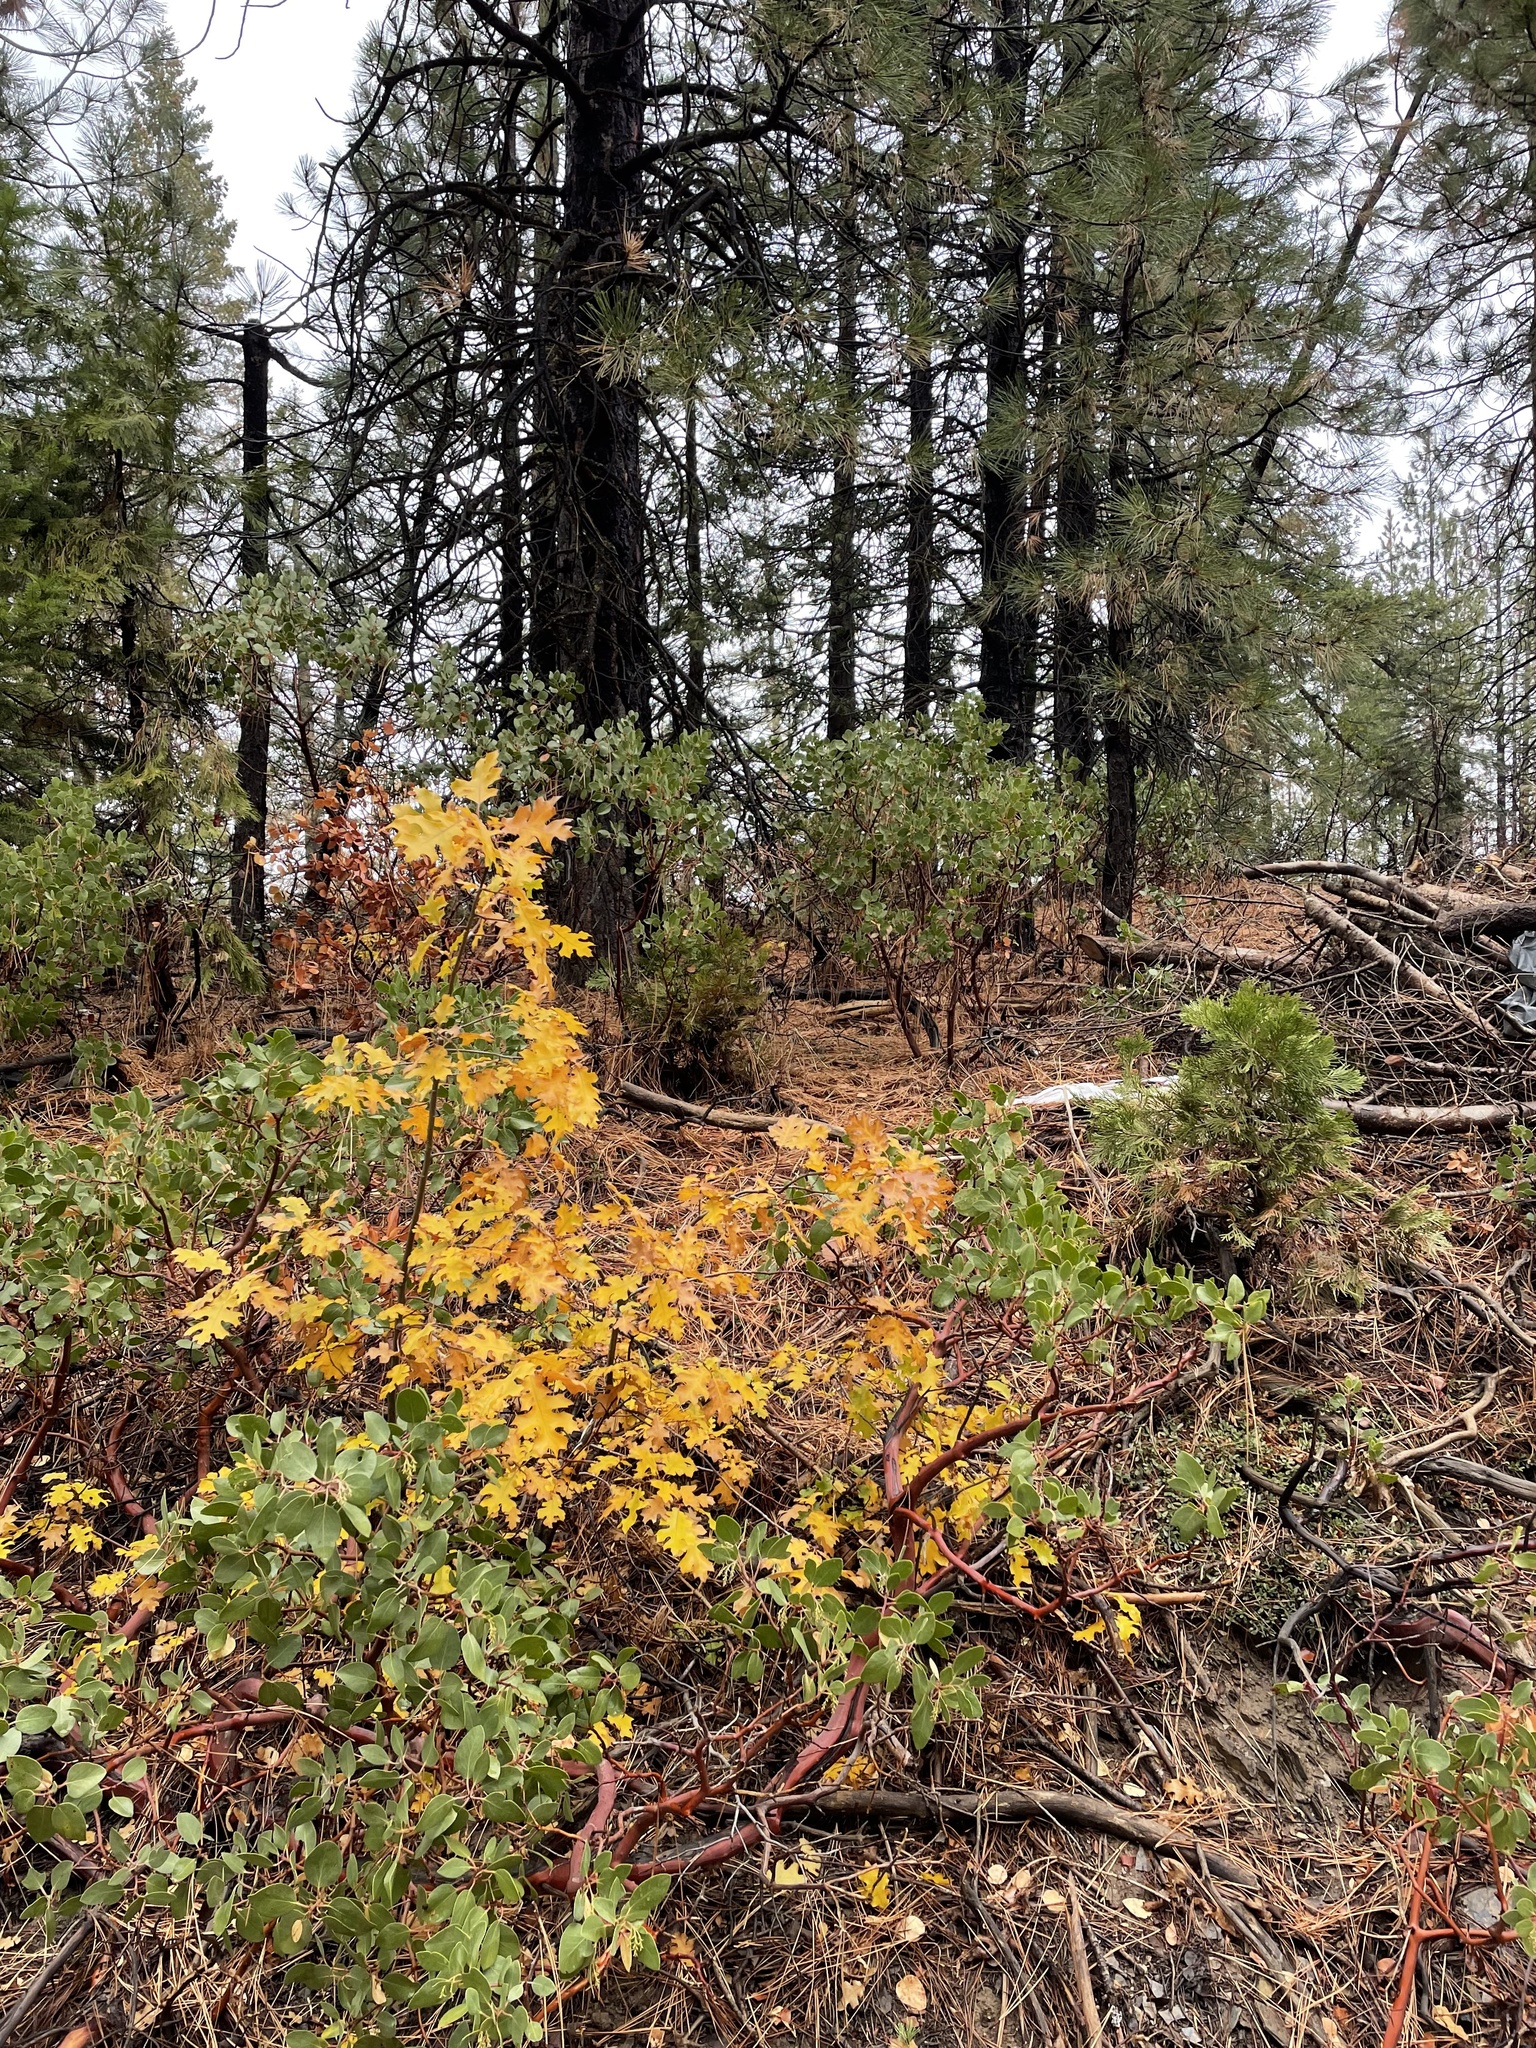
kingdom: Plantae
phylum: Tracheophyta
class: Magnoliopsida
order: Fagales
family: Fagaceae
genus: Quercus
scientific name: Quercus kelloggii
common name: California black oak
